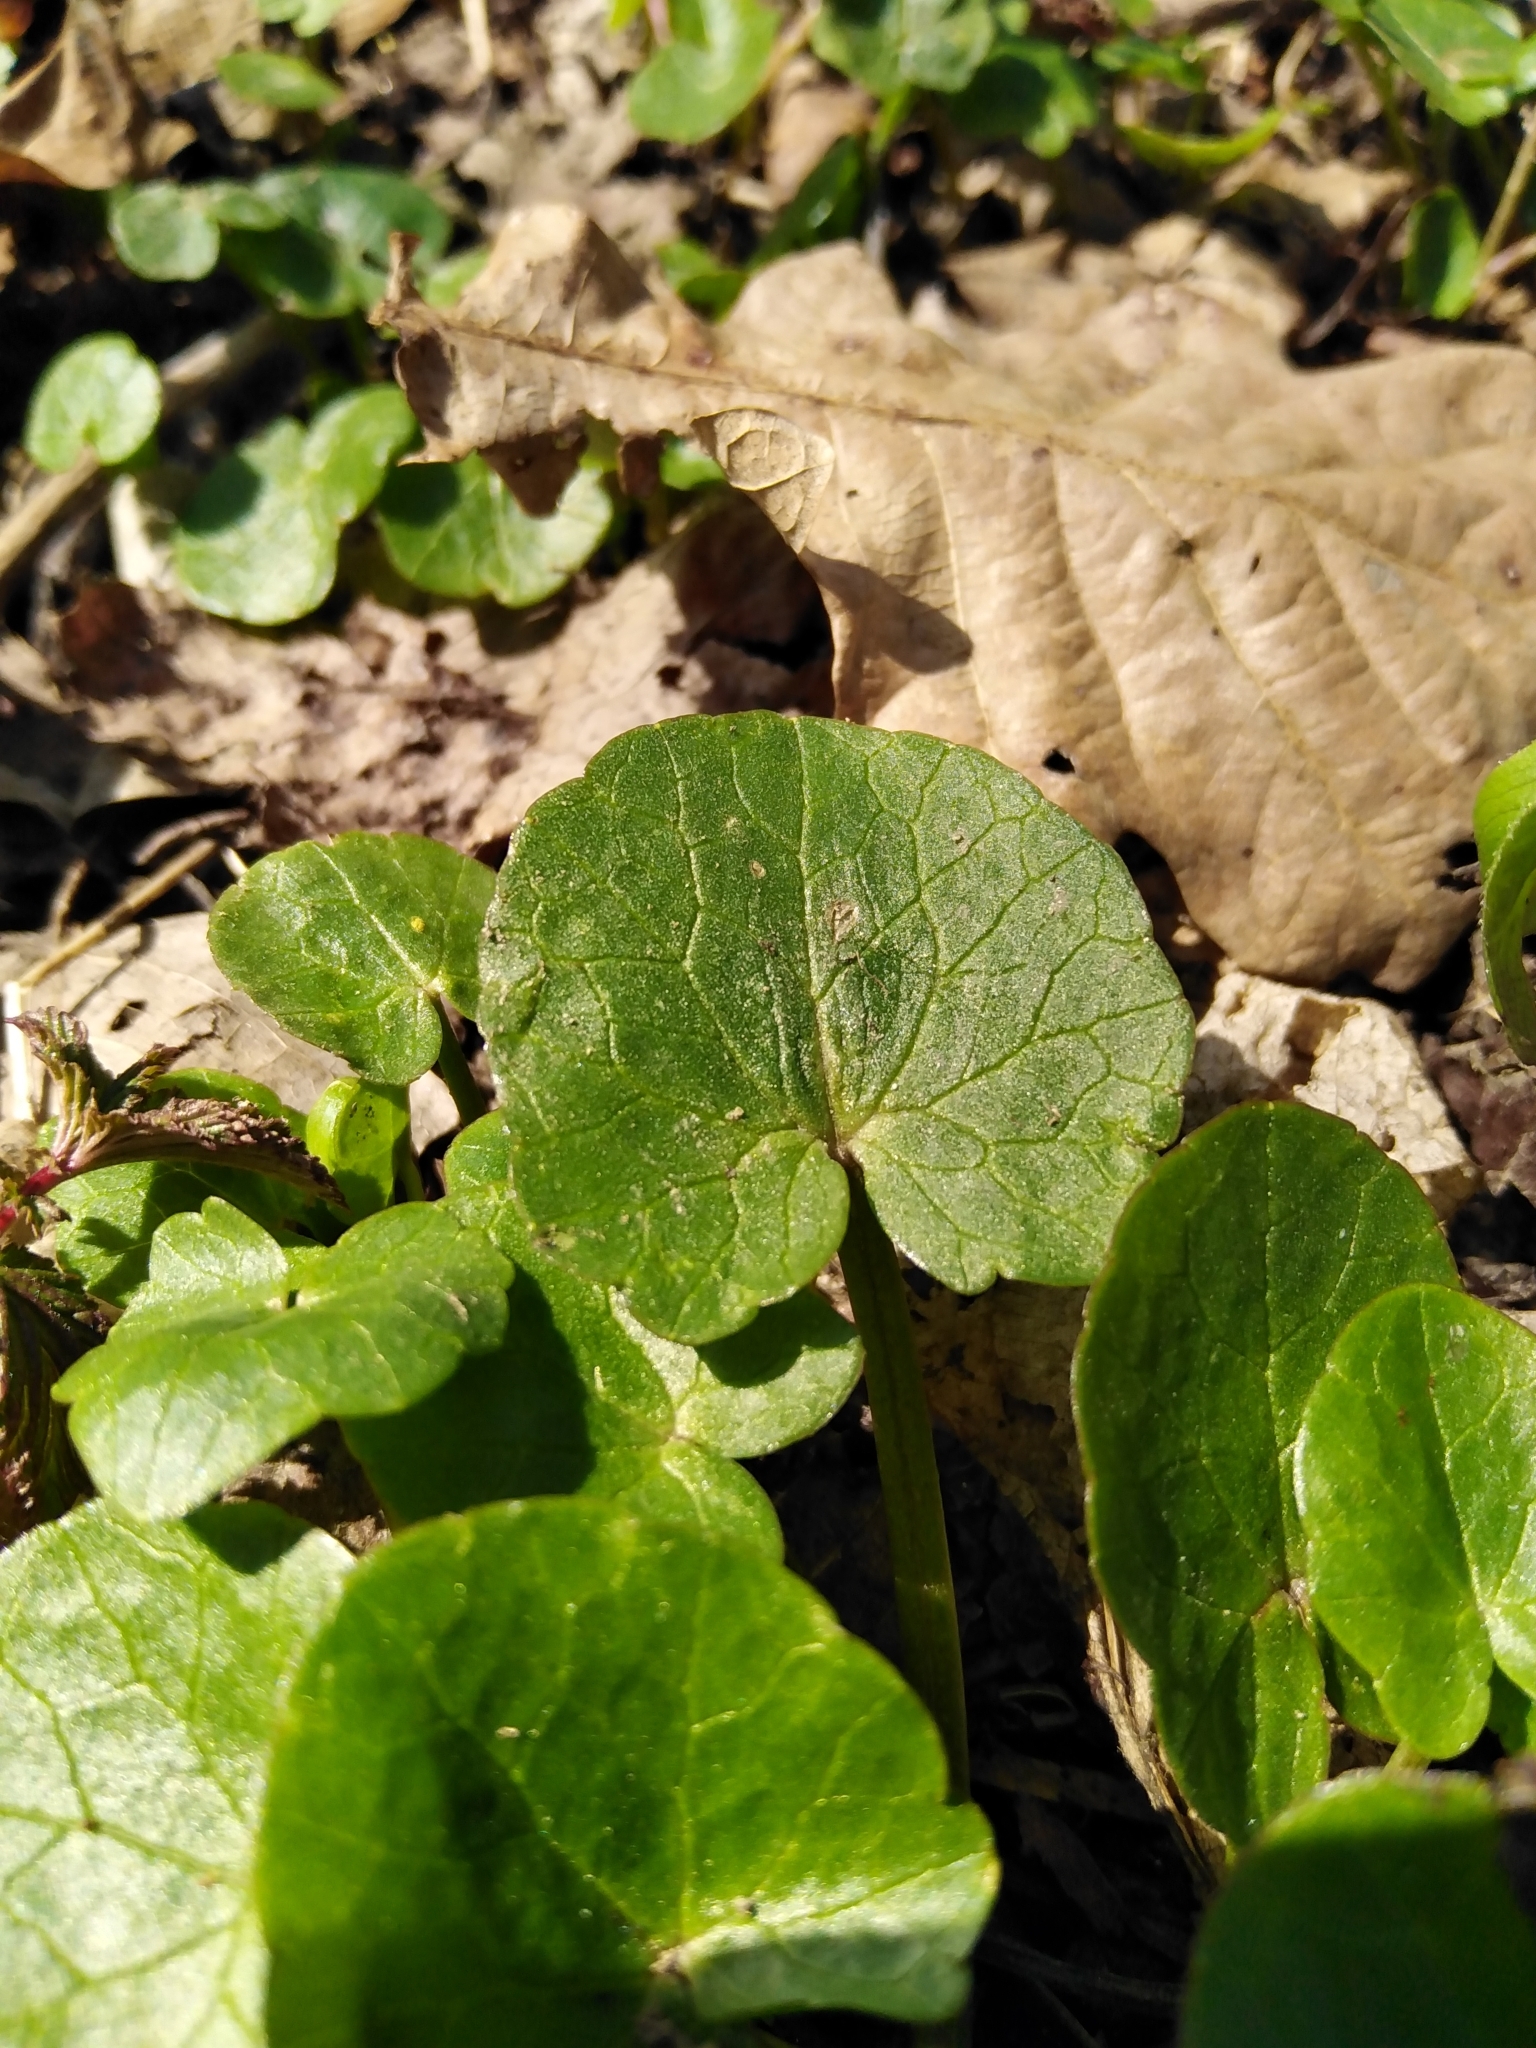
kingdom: Plantae
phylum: Tracheophyta
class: Magnoliopsida
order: Ranunculales
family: Ranunculaceae
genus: Ficaria
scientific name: Ficaria verna
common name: Lesser celandine
